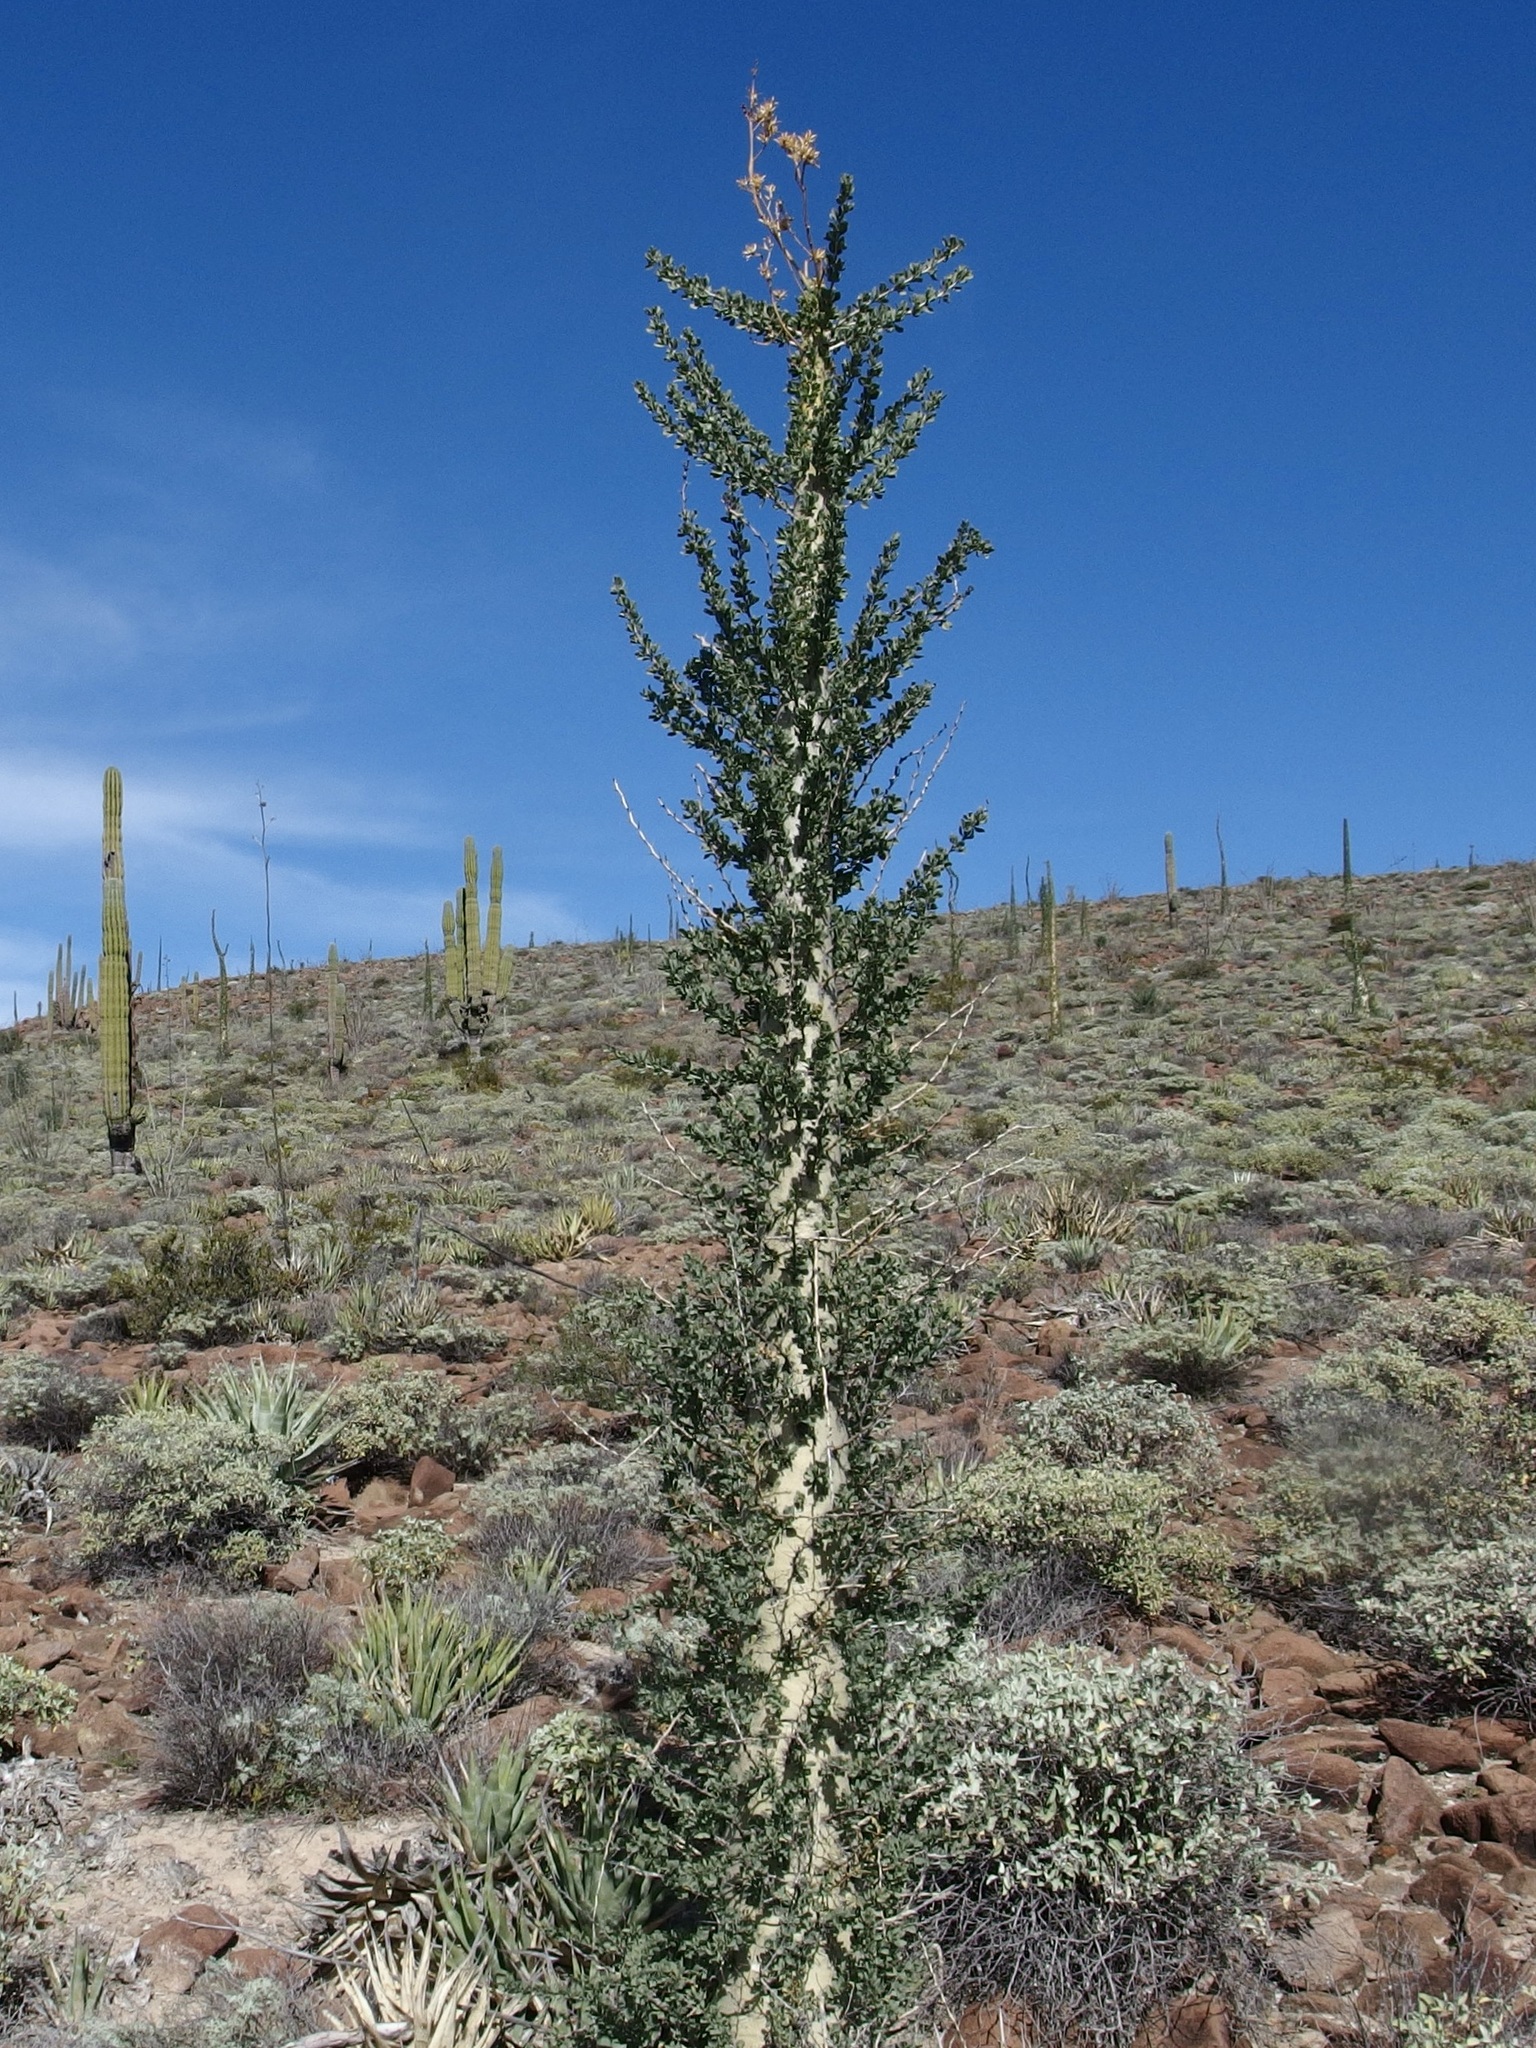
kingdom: Plantae
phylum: Tracheophyta
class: Magnoliopsida
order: Ericales
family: Fouquieriaceae
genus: Fouquieria
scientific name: Fouquieria columnaris
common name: Boojumtree
